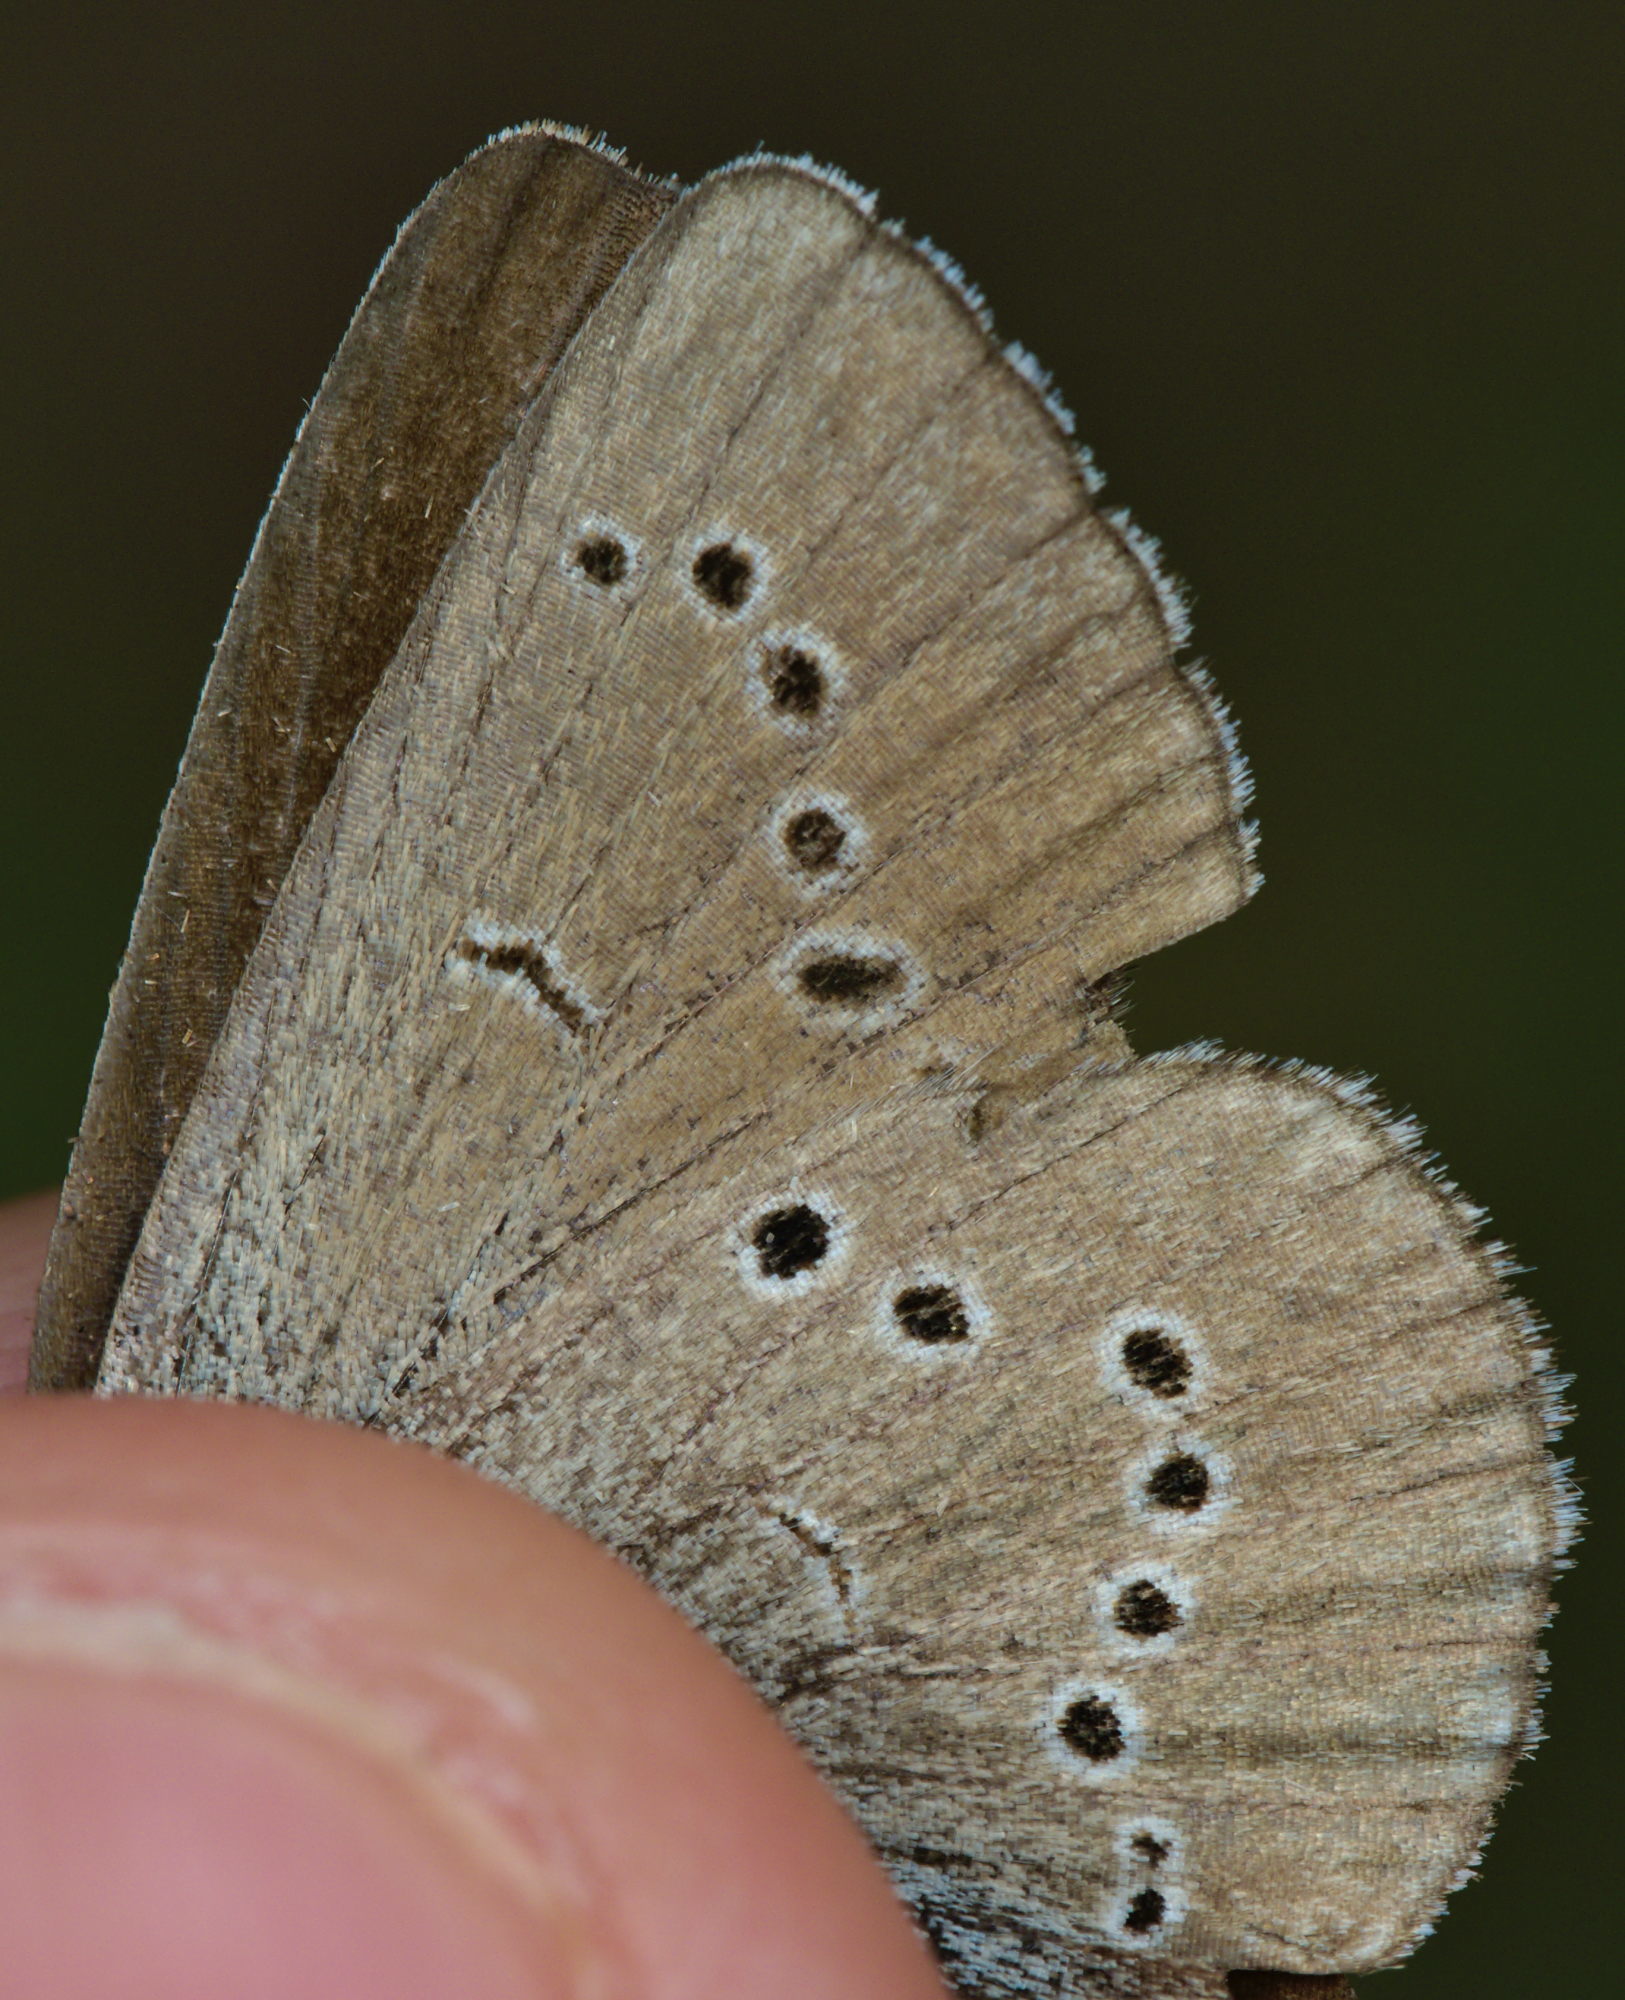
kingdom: Animalia
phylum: Arthropoda
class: Insecta
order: Lepidoptera
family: Lycaenidae
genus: Cyaniris
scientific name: Cyaniris semiargus
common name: Mazarine blue
